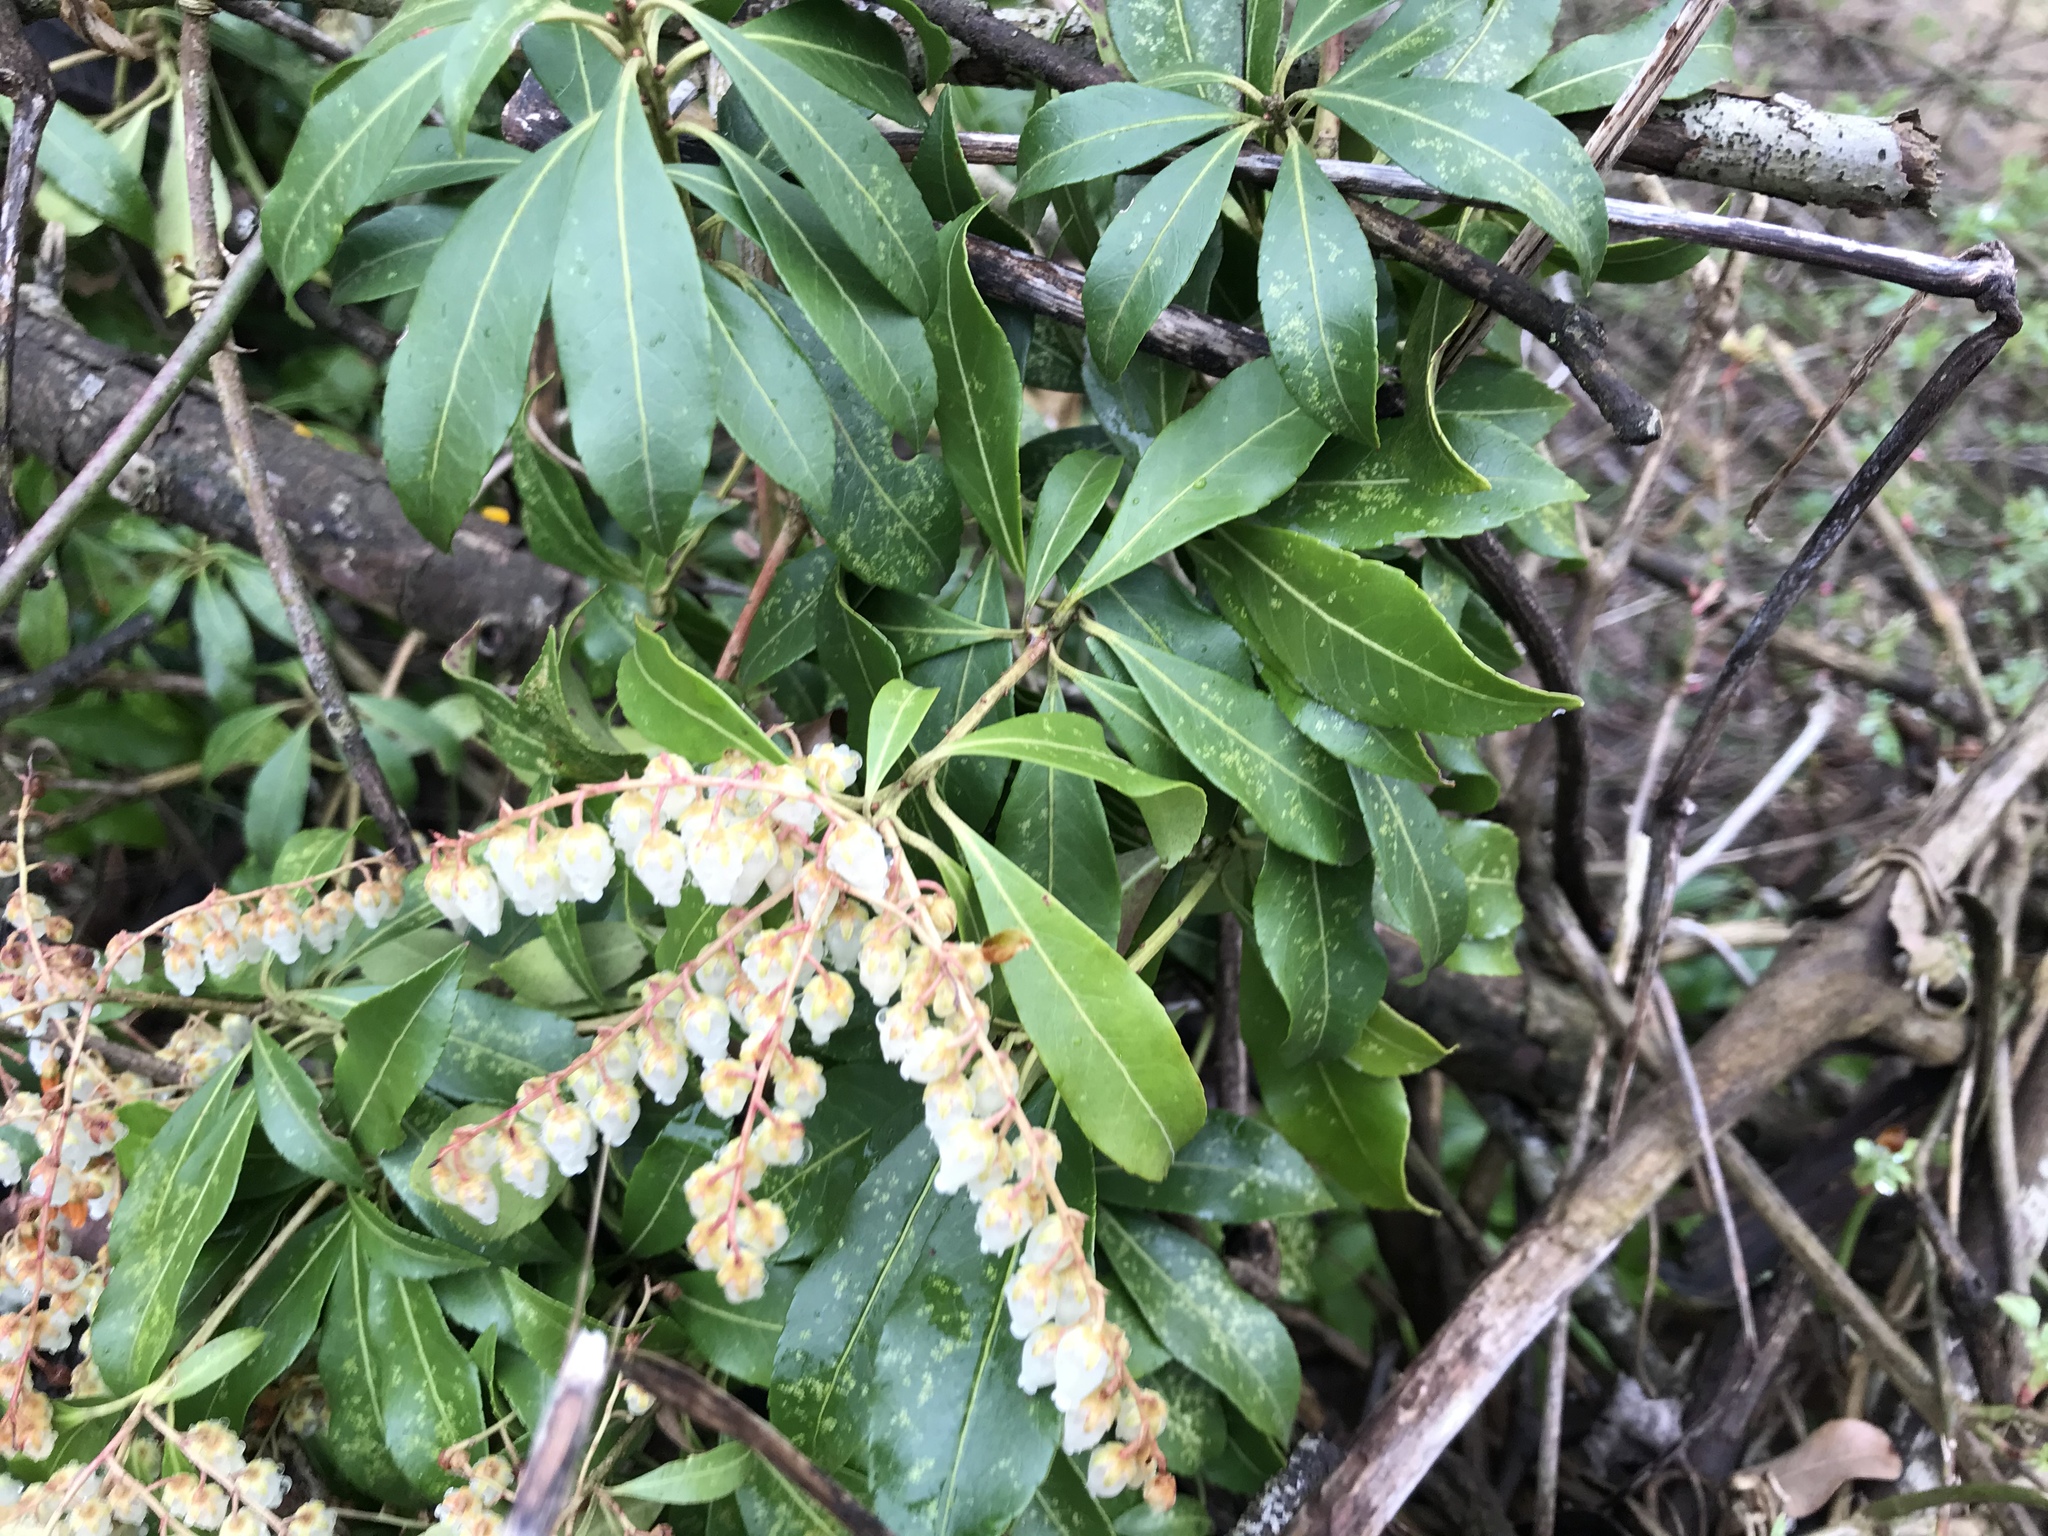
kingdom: Plantae
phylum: Tracheophyta
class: Magnoliopsida
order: Ericales
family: Ericaceae
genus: Pieris
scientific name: Pieris japonica
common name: Japanese pieris
